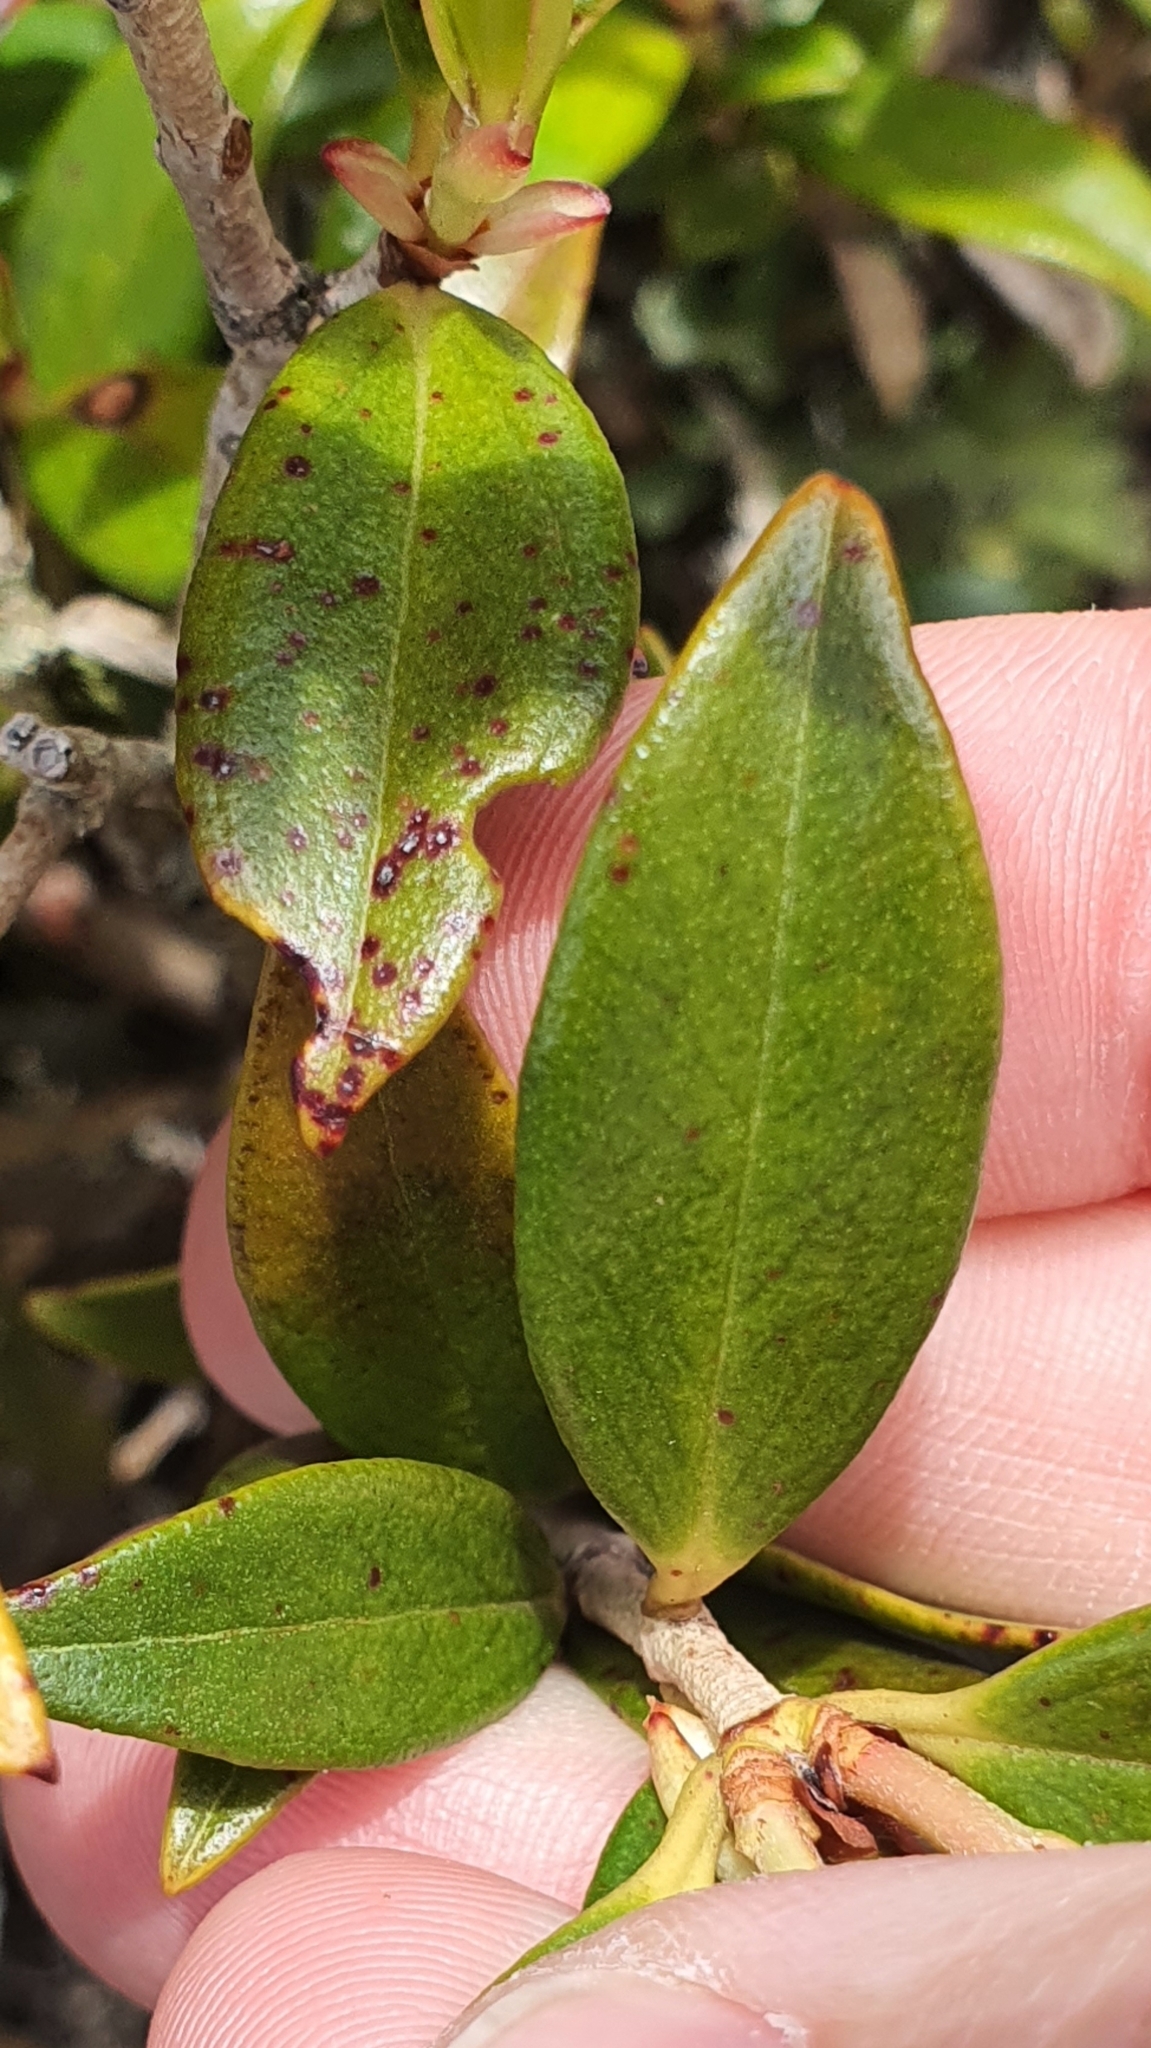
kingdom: Plantae
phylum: Tracheophyta
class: Magnoliopsida
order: Myrtales
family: Myrtaceae
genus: Metrosideros
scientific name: Metrosideros umbellata
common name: Southern rata
